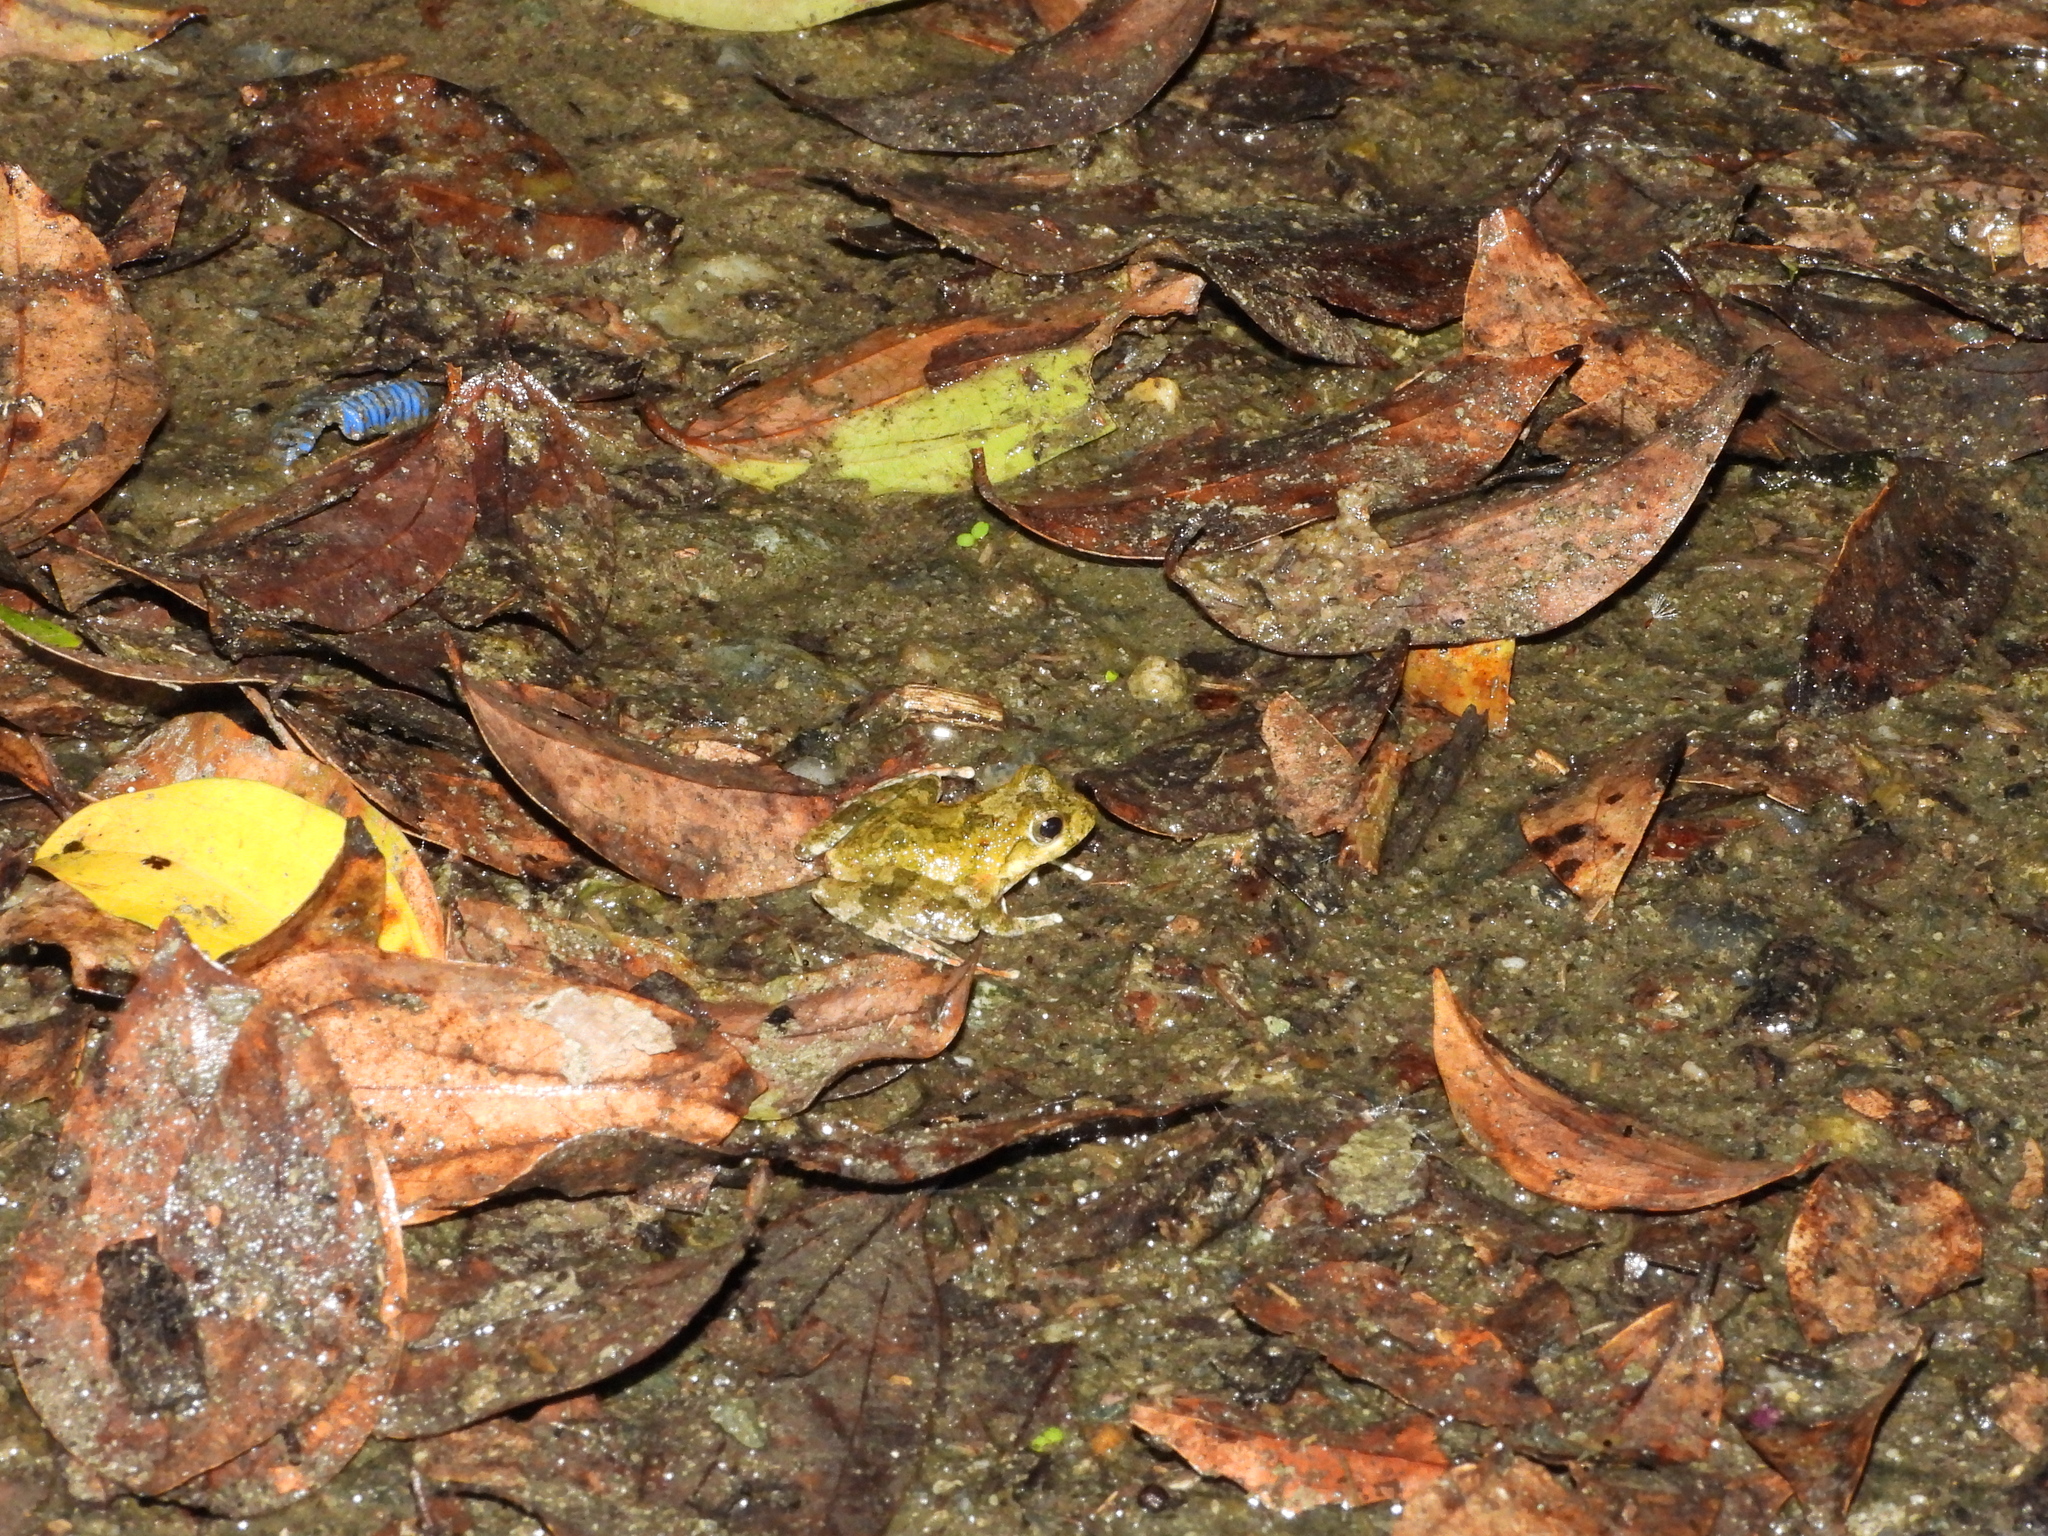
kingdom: Animalia
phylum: Chordata
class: Amphibia
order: Anura
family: Rhacophoridae
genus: Buergeria
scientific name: Buergeria otai
